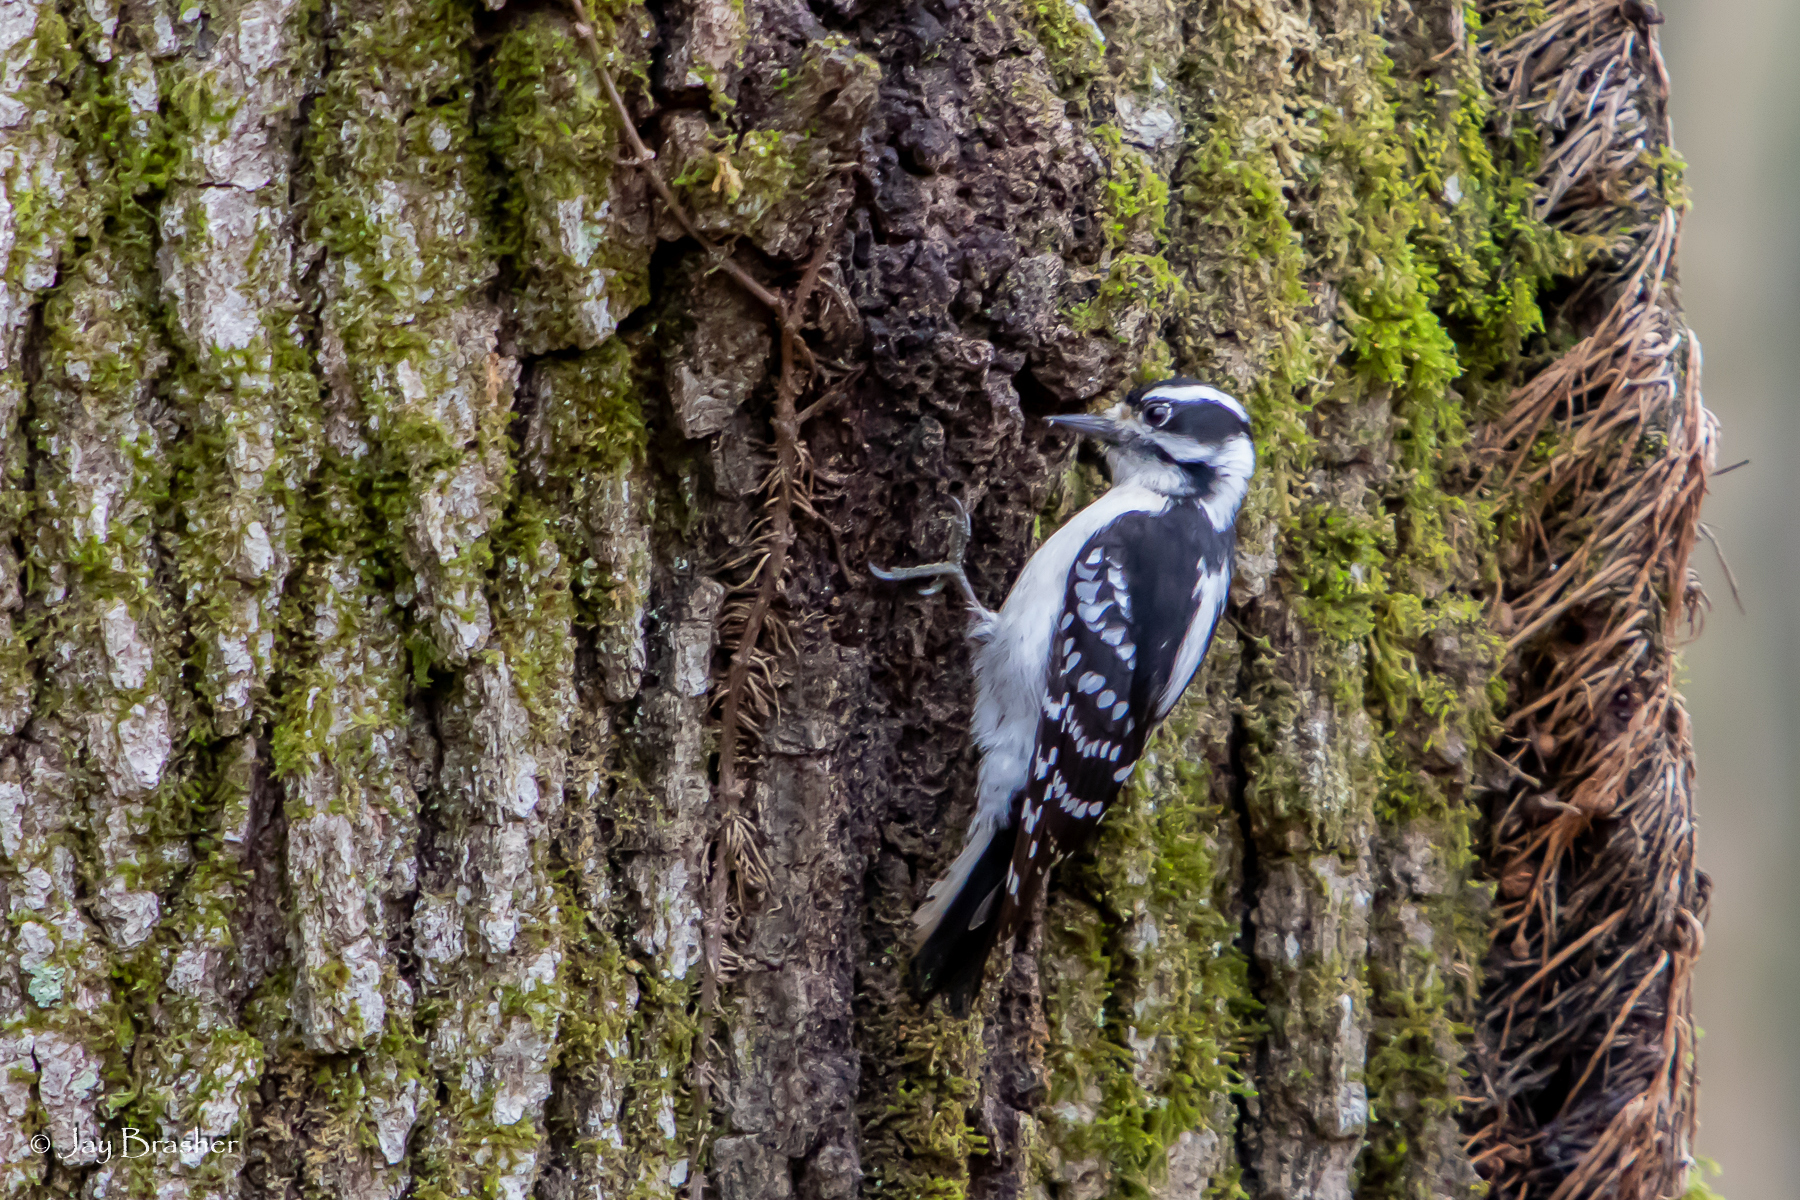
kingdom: Animalia
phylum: Chordata
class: Aves
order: Piciformes
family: Picidae
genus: Dryobates
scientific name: Dryobates pubescens
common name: Downy woodpecker
